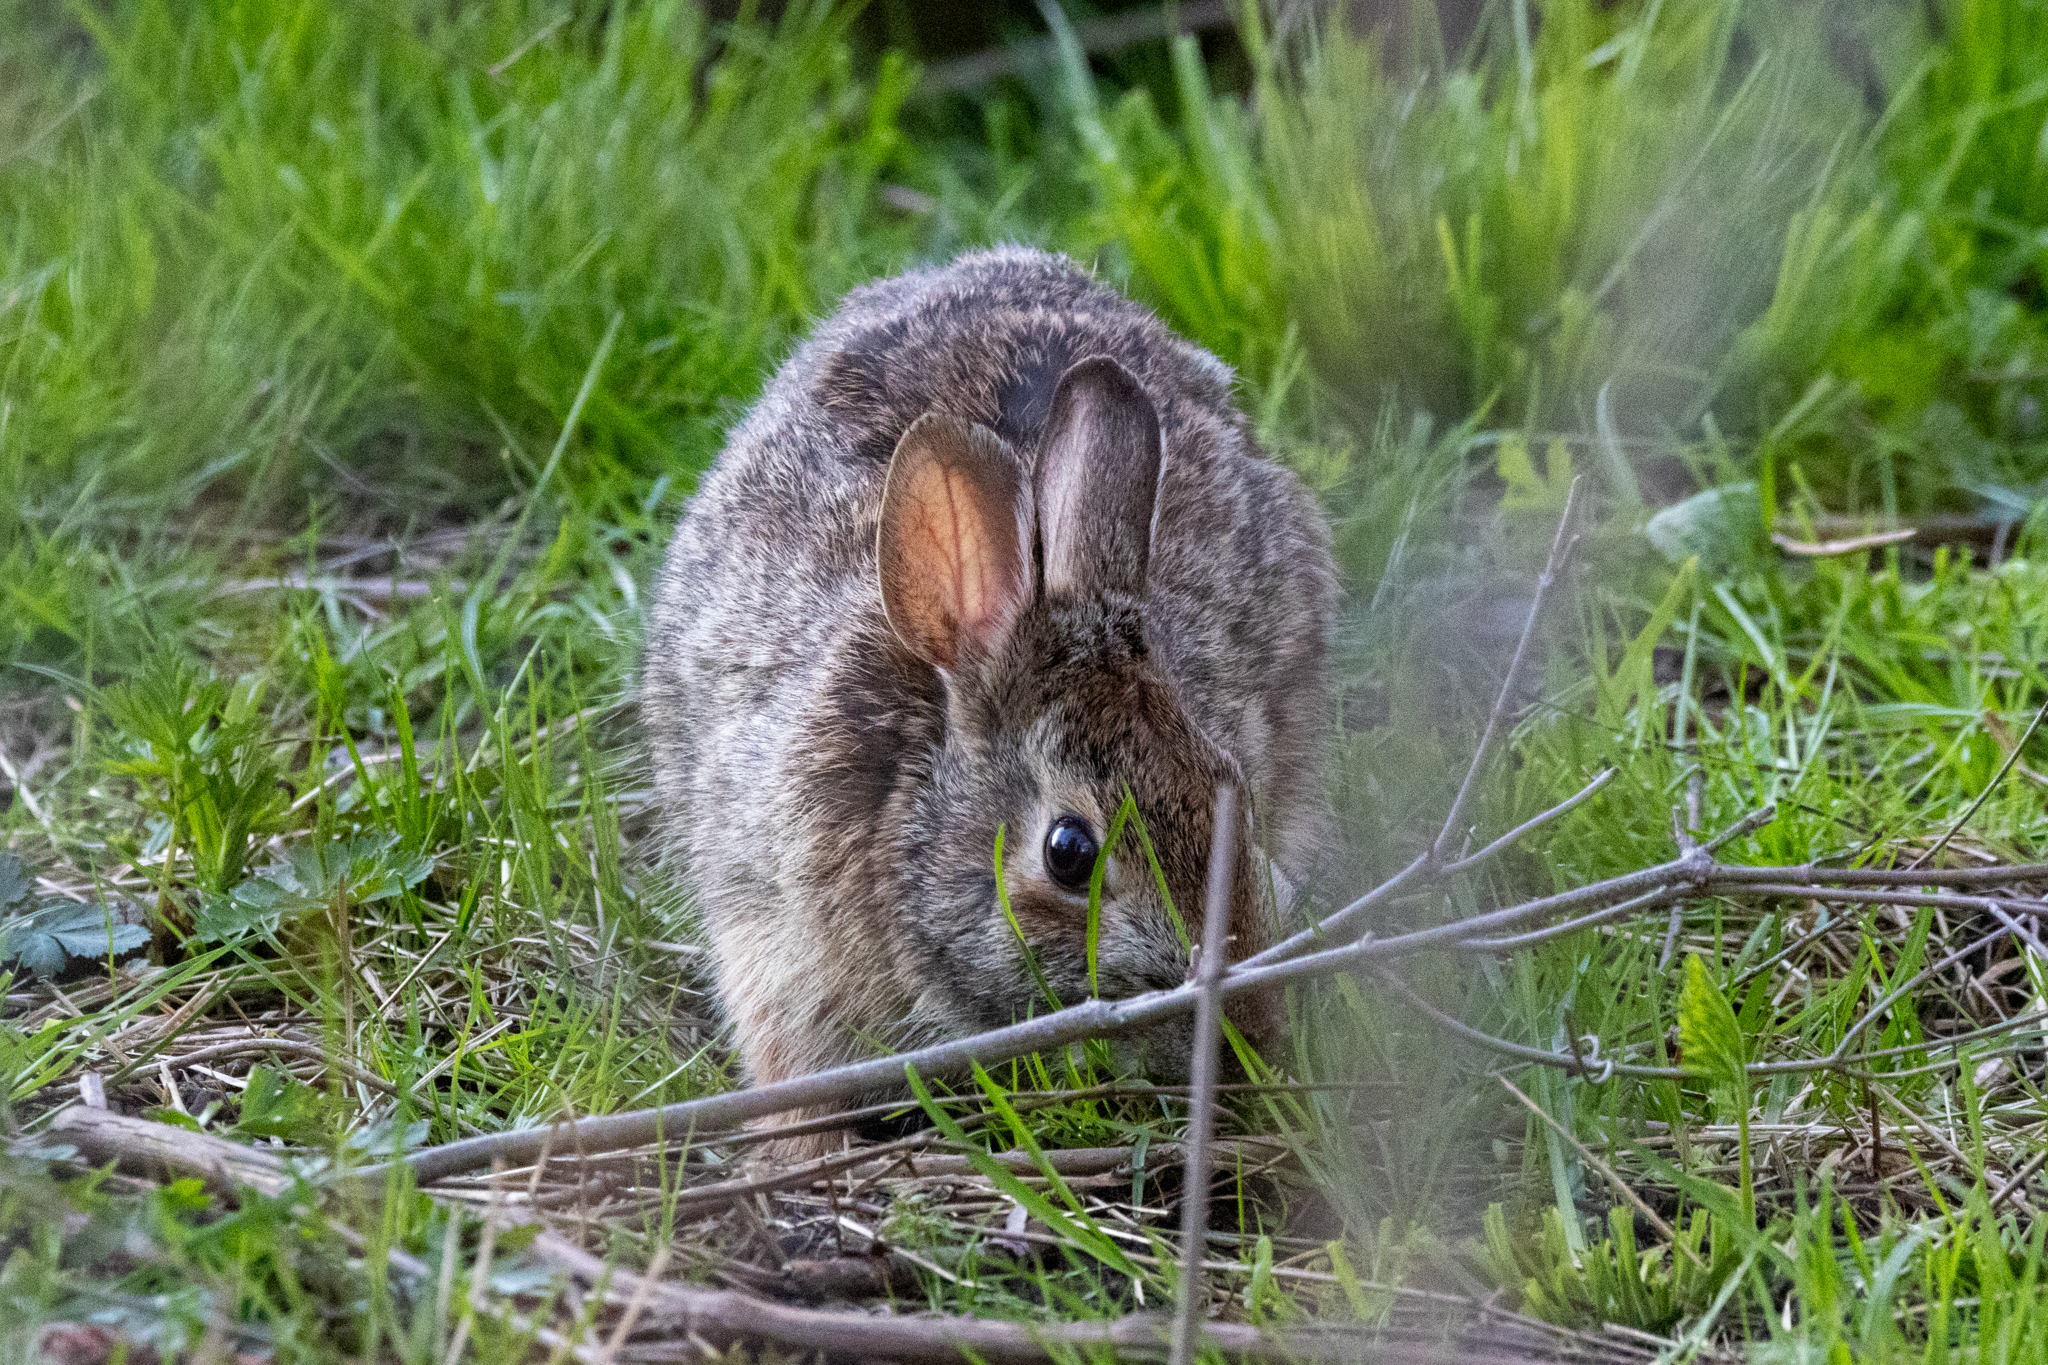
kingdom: Animalia
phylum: Chordata
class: Mammalia
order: Lagomorpha
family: Leporidae
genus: Sylvilagus
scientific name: Sylvilagus floridanus
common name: Eastern cottontail
